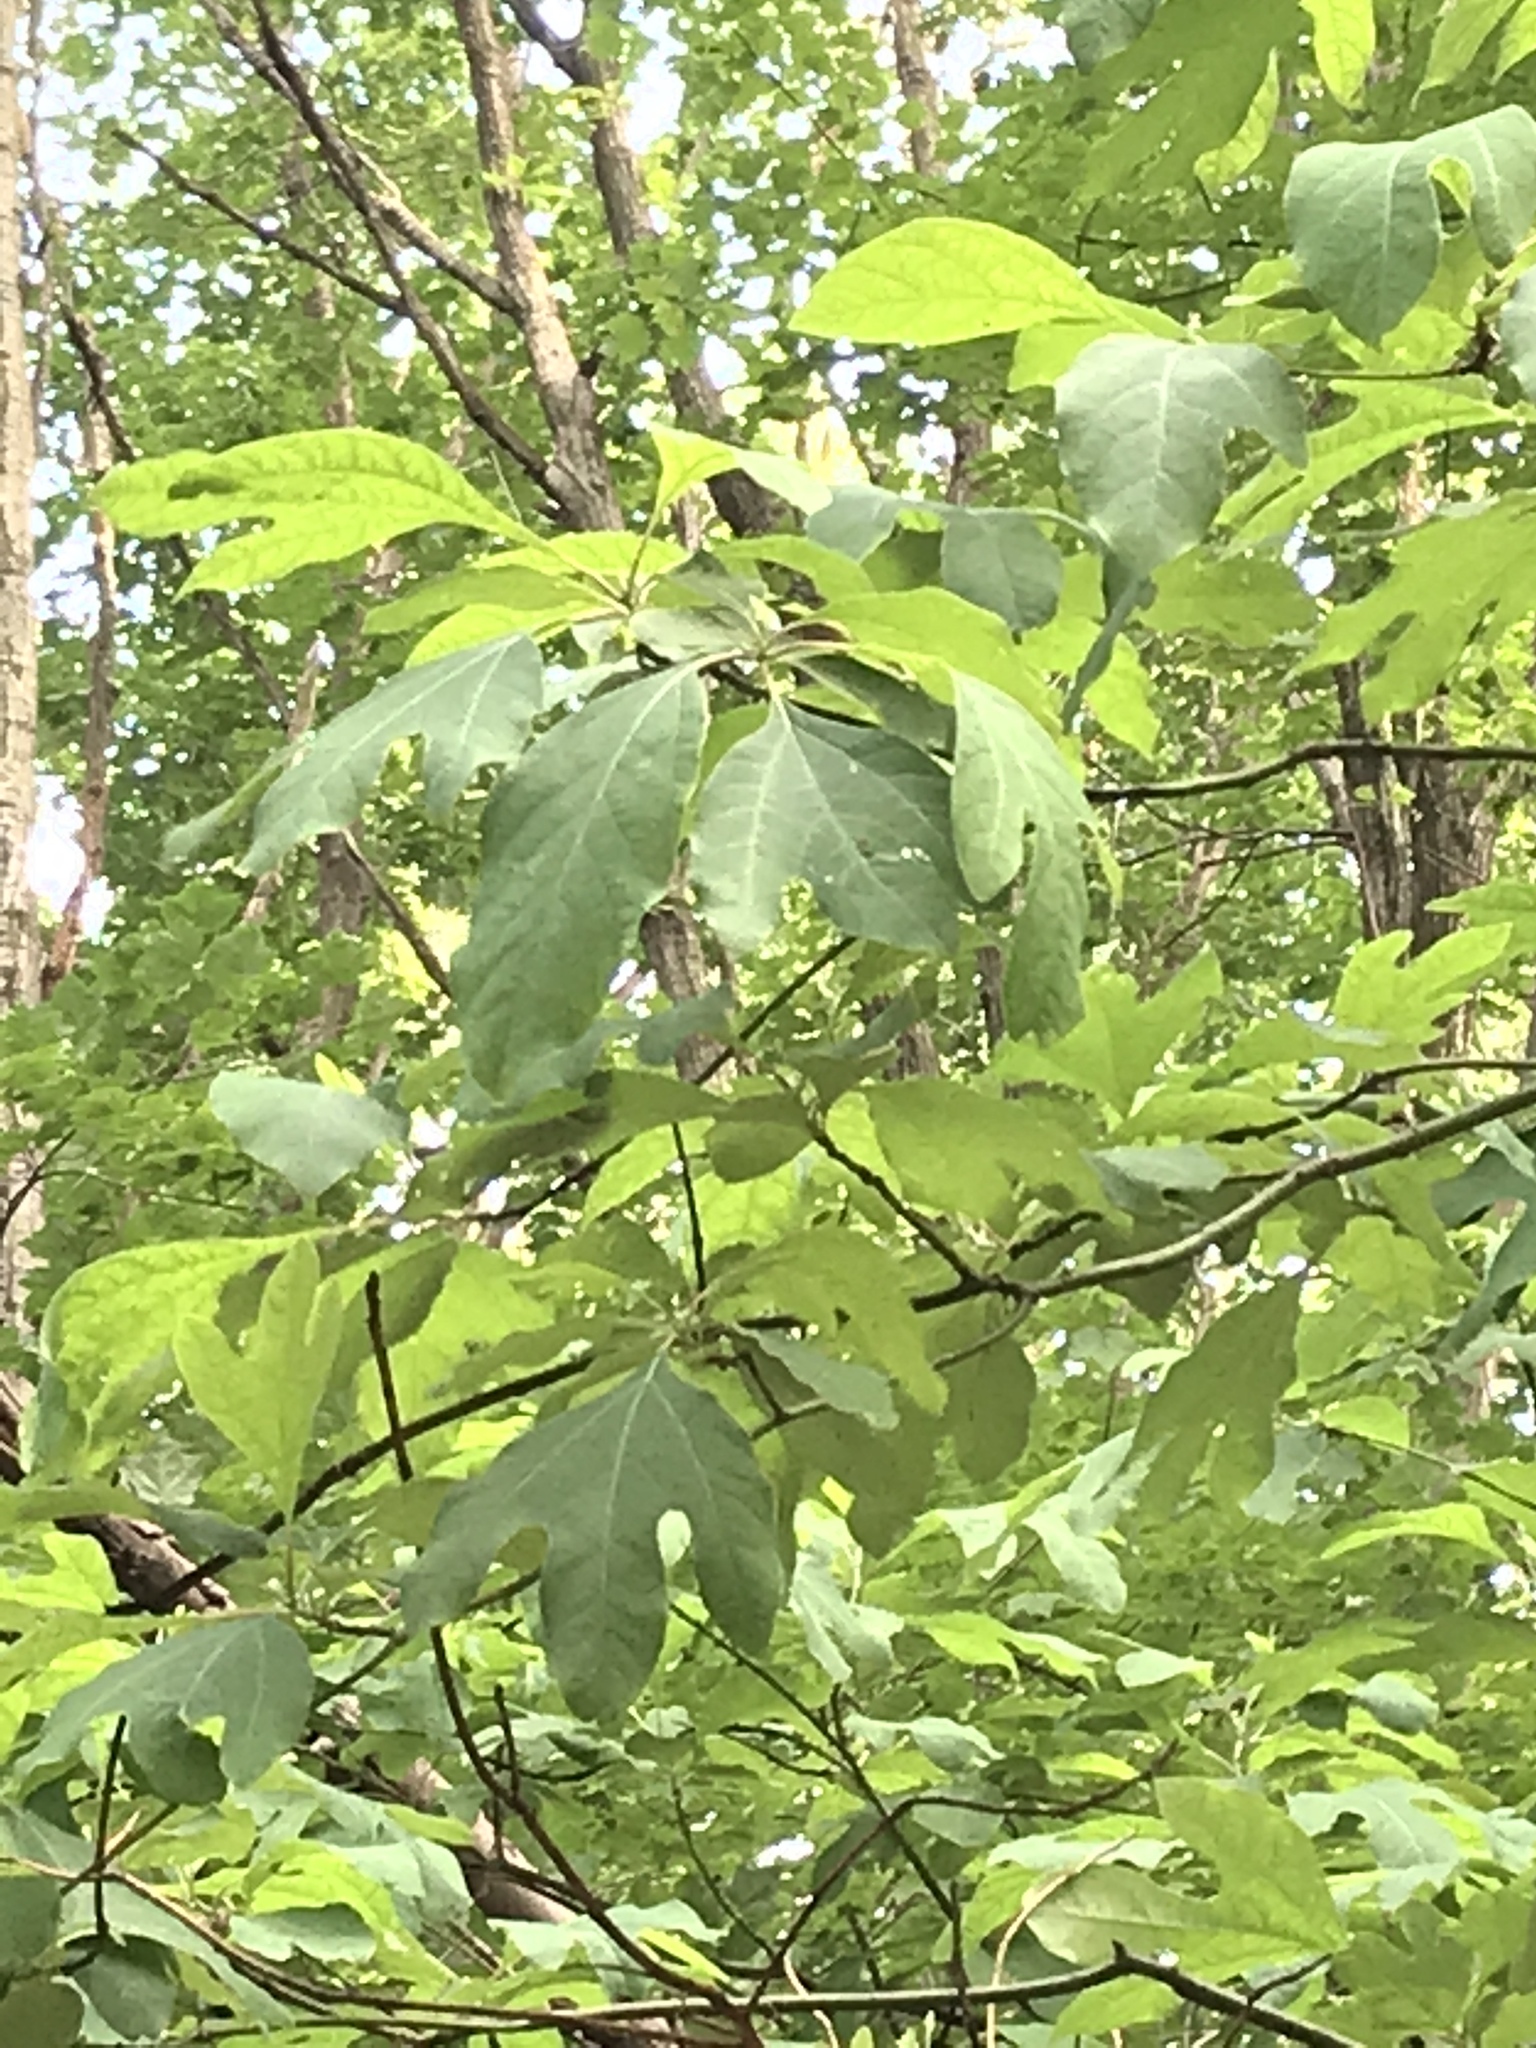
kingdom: Plantae
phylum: Tracheophyta
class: Magnoliopsida
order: Laurales
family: Lauraceae
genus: Sassafras
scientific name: Sassafras albidum
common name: Sassafras
